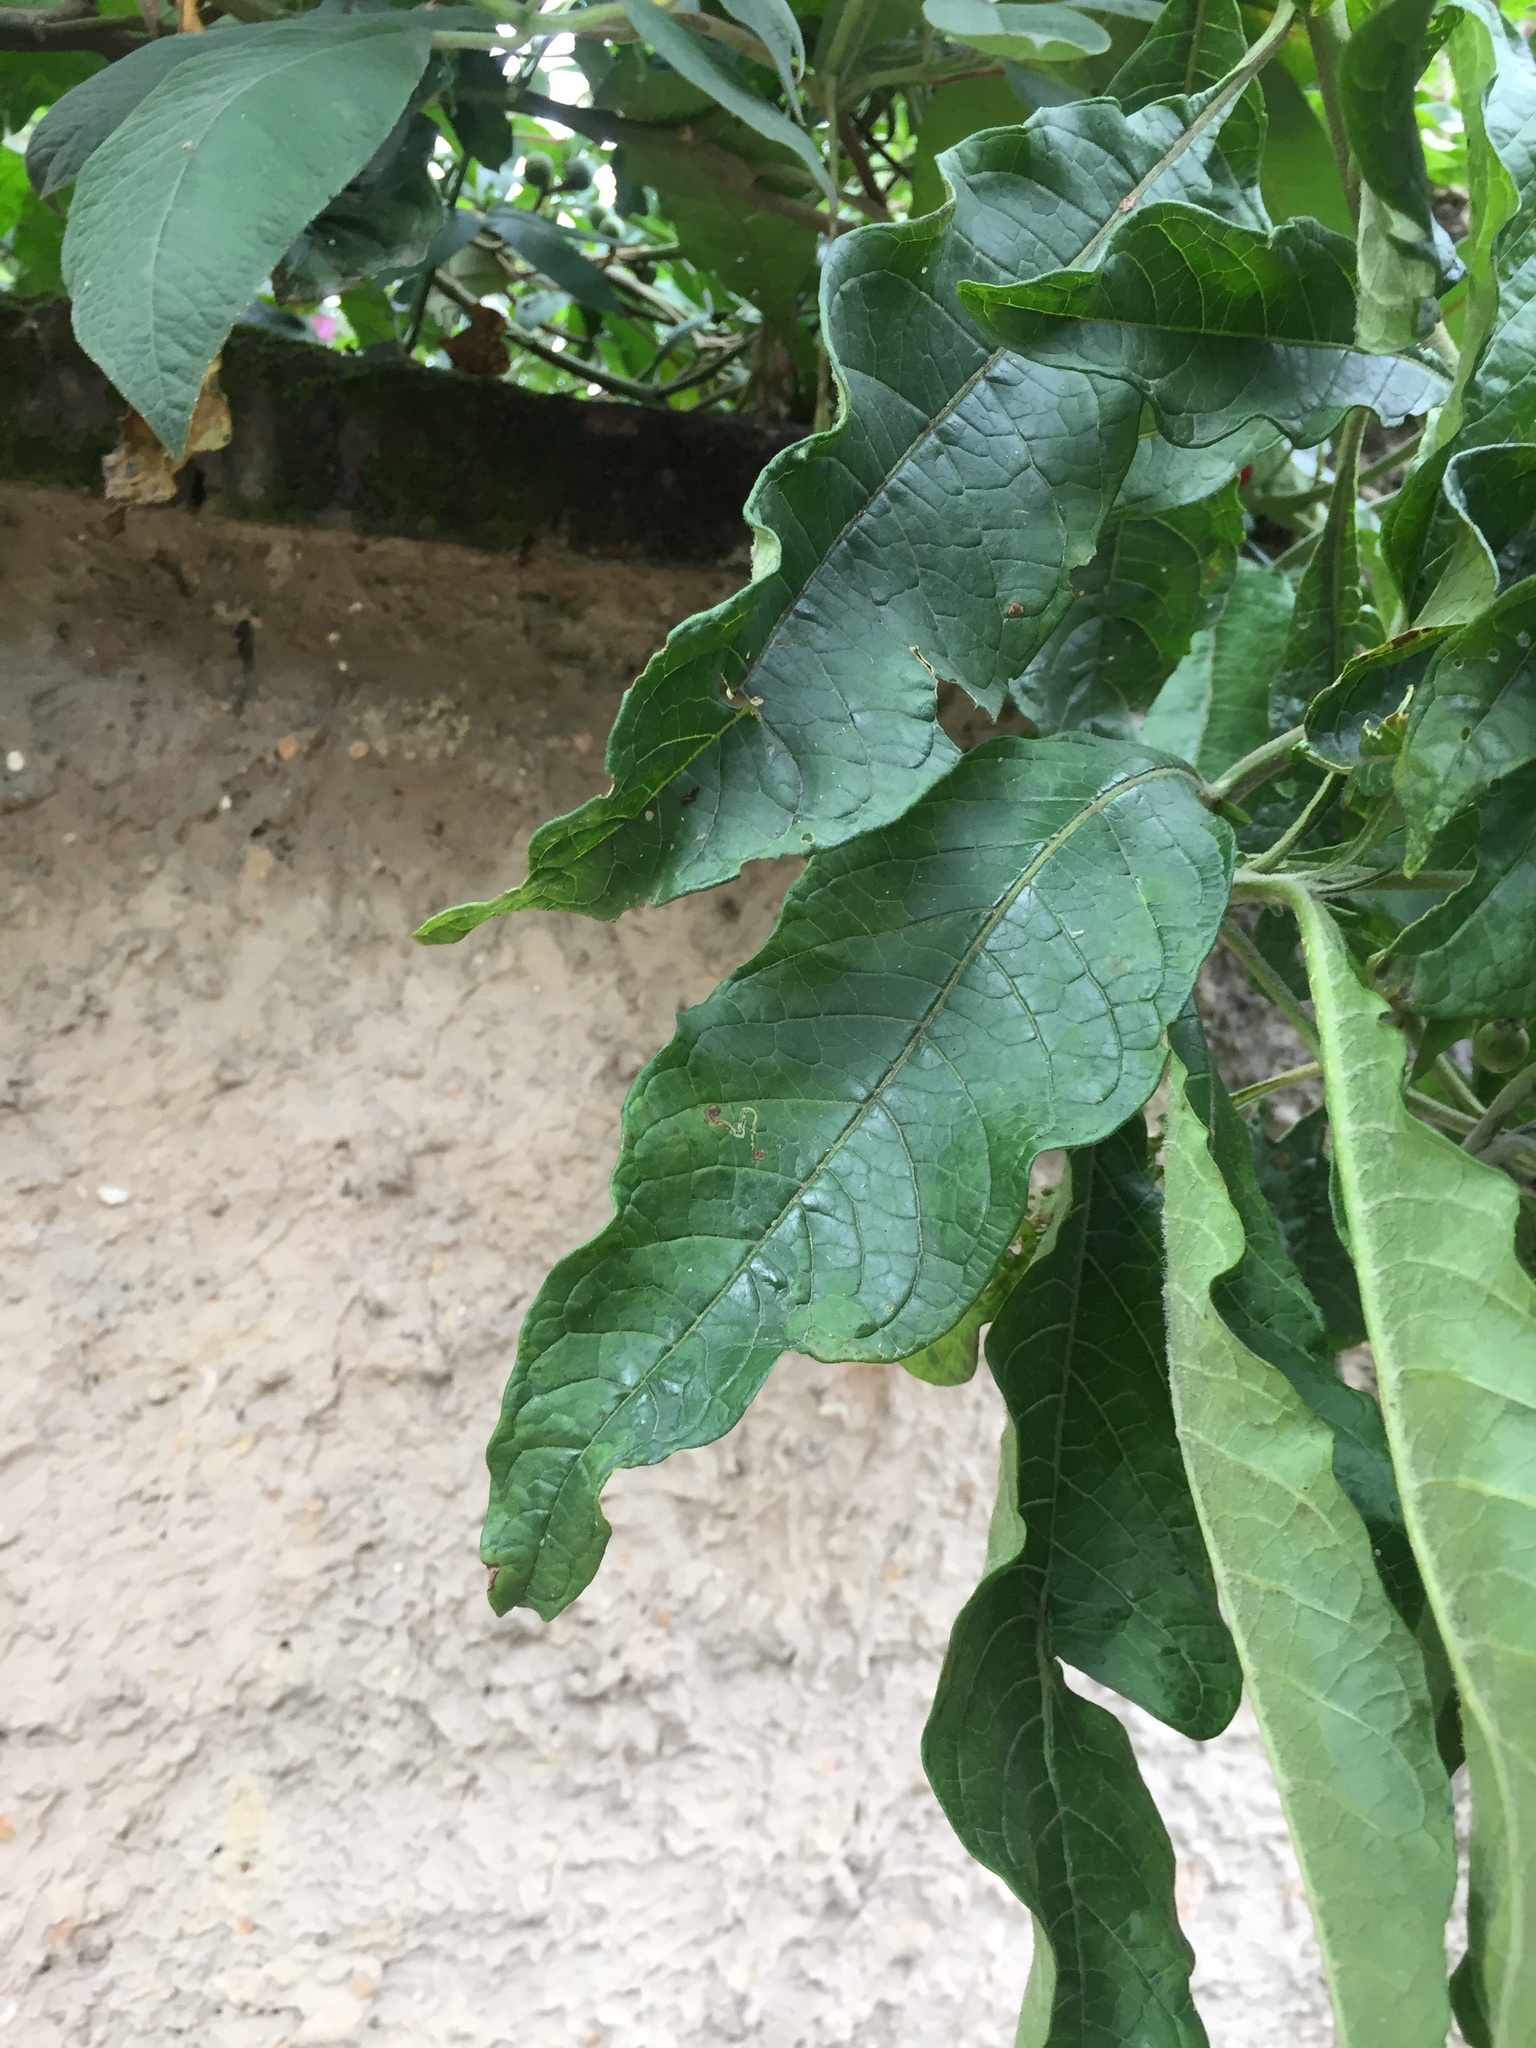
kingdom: Plantae
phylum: Tracheophyta
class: Magnoliopsida
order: Solanales
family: Solanaceae
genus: Solanum
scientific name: Solanum oblongifolium
